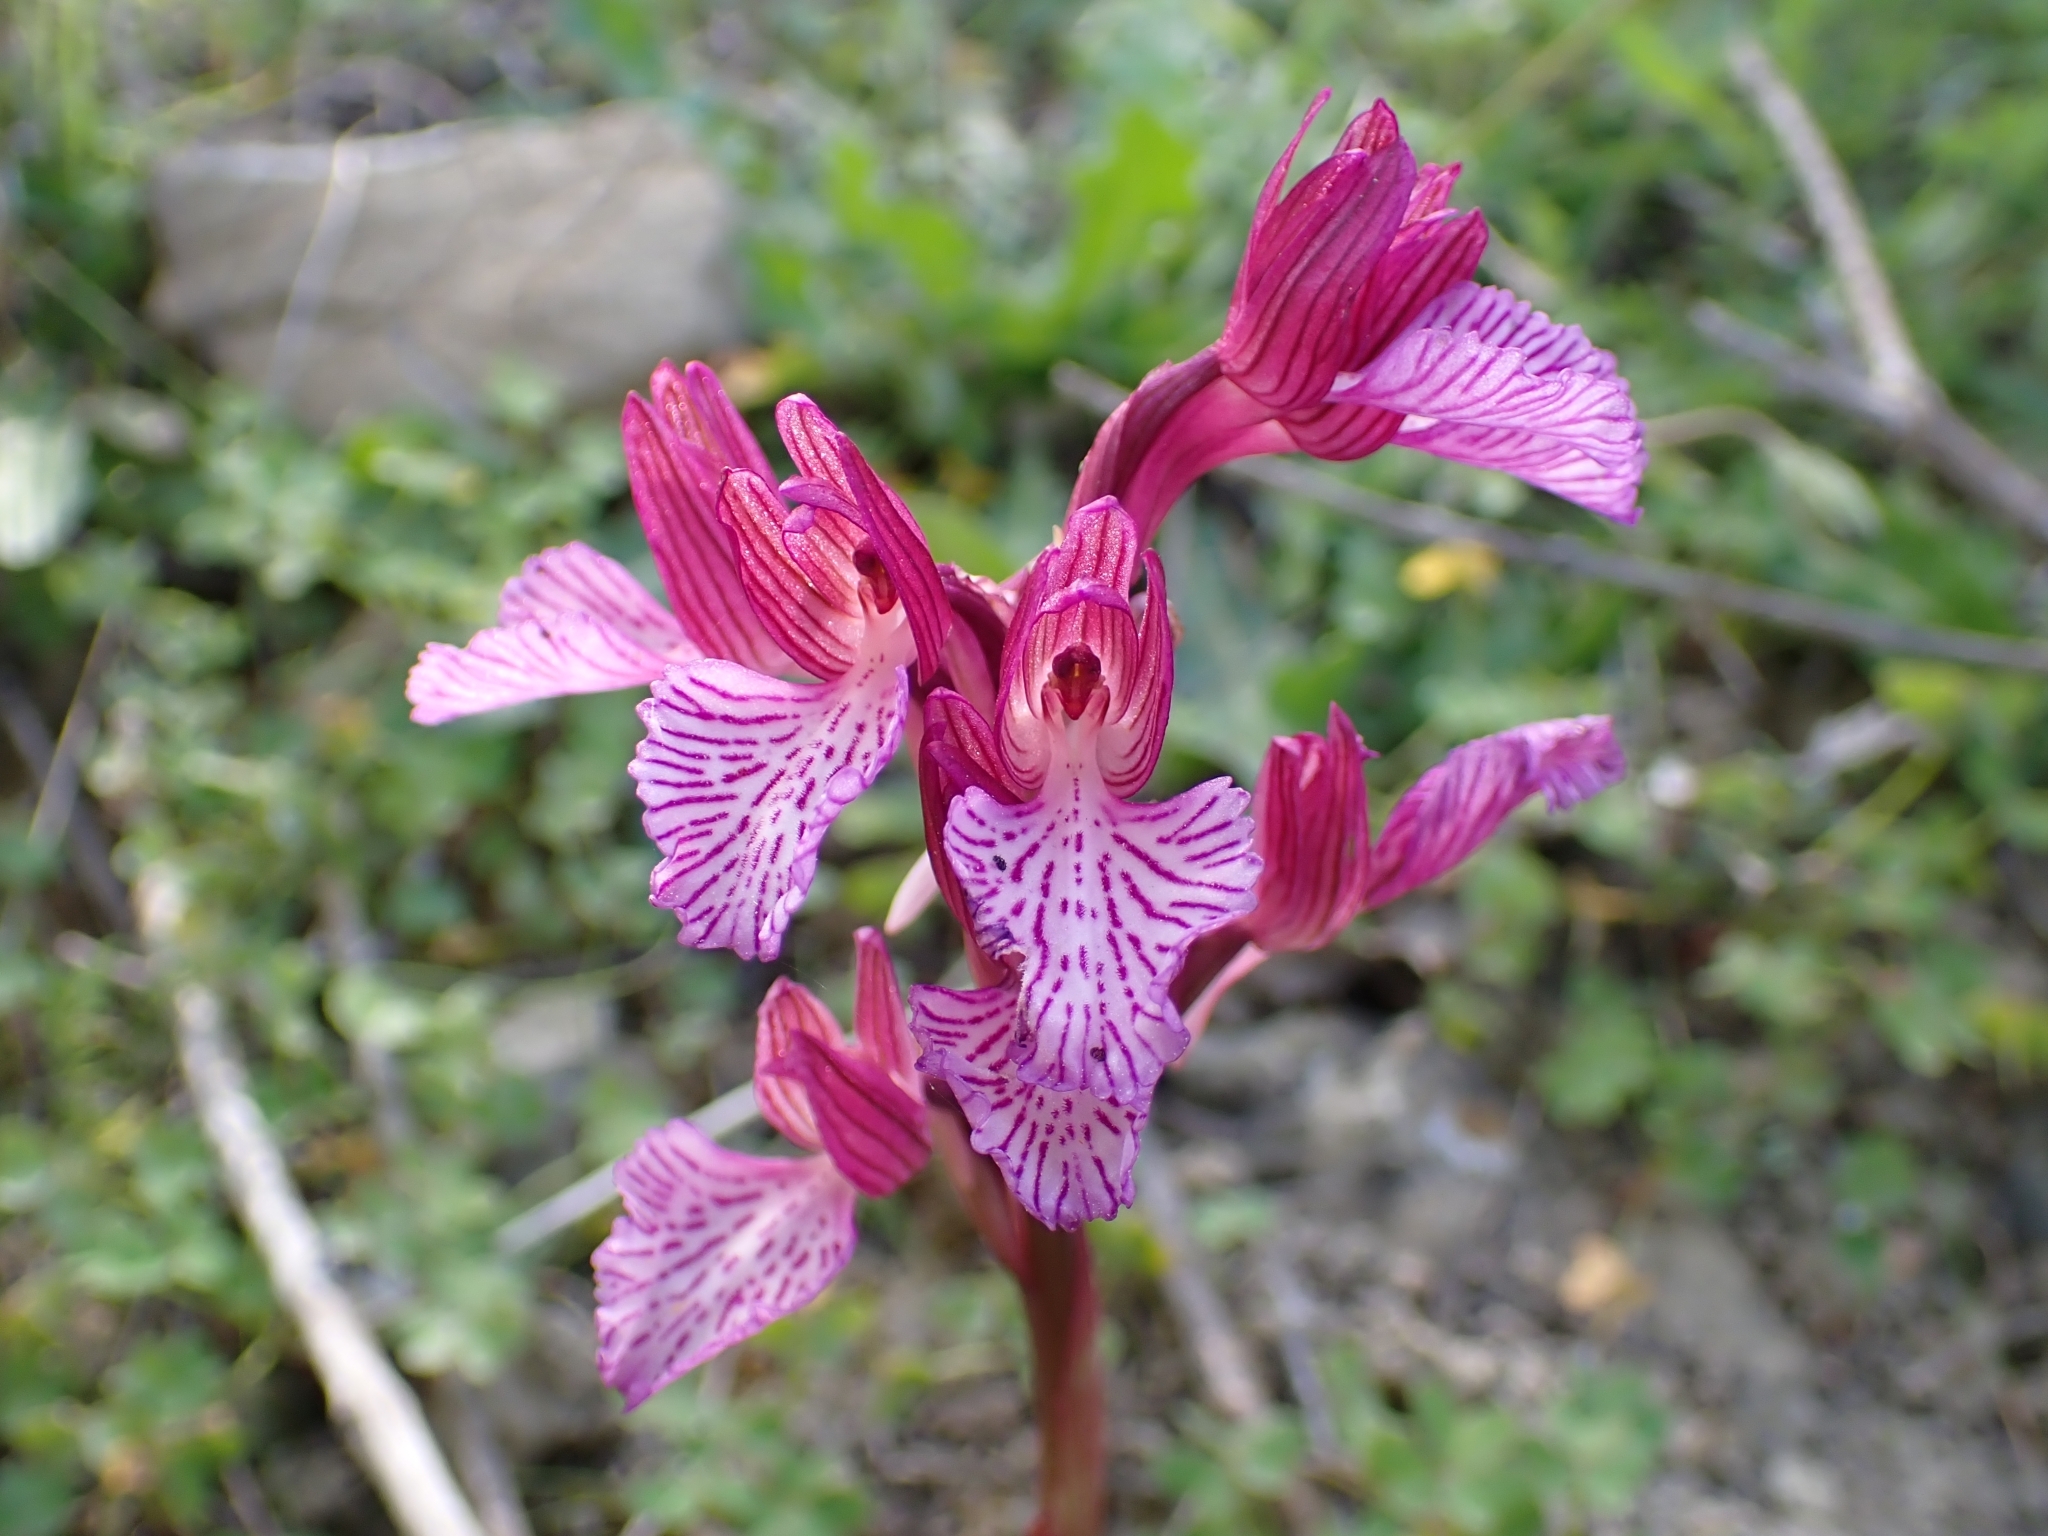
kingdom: Plantae
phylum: Tracheophyta
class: Liliopsida
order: Asparagales
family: Orchidaceae
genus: Anacamptis
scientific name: Anacamptis papilionacea
